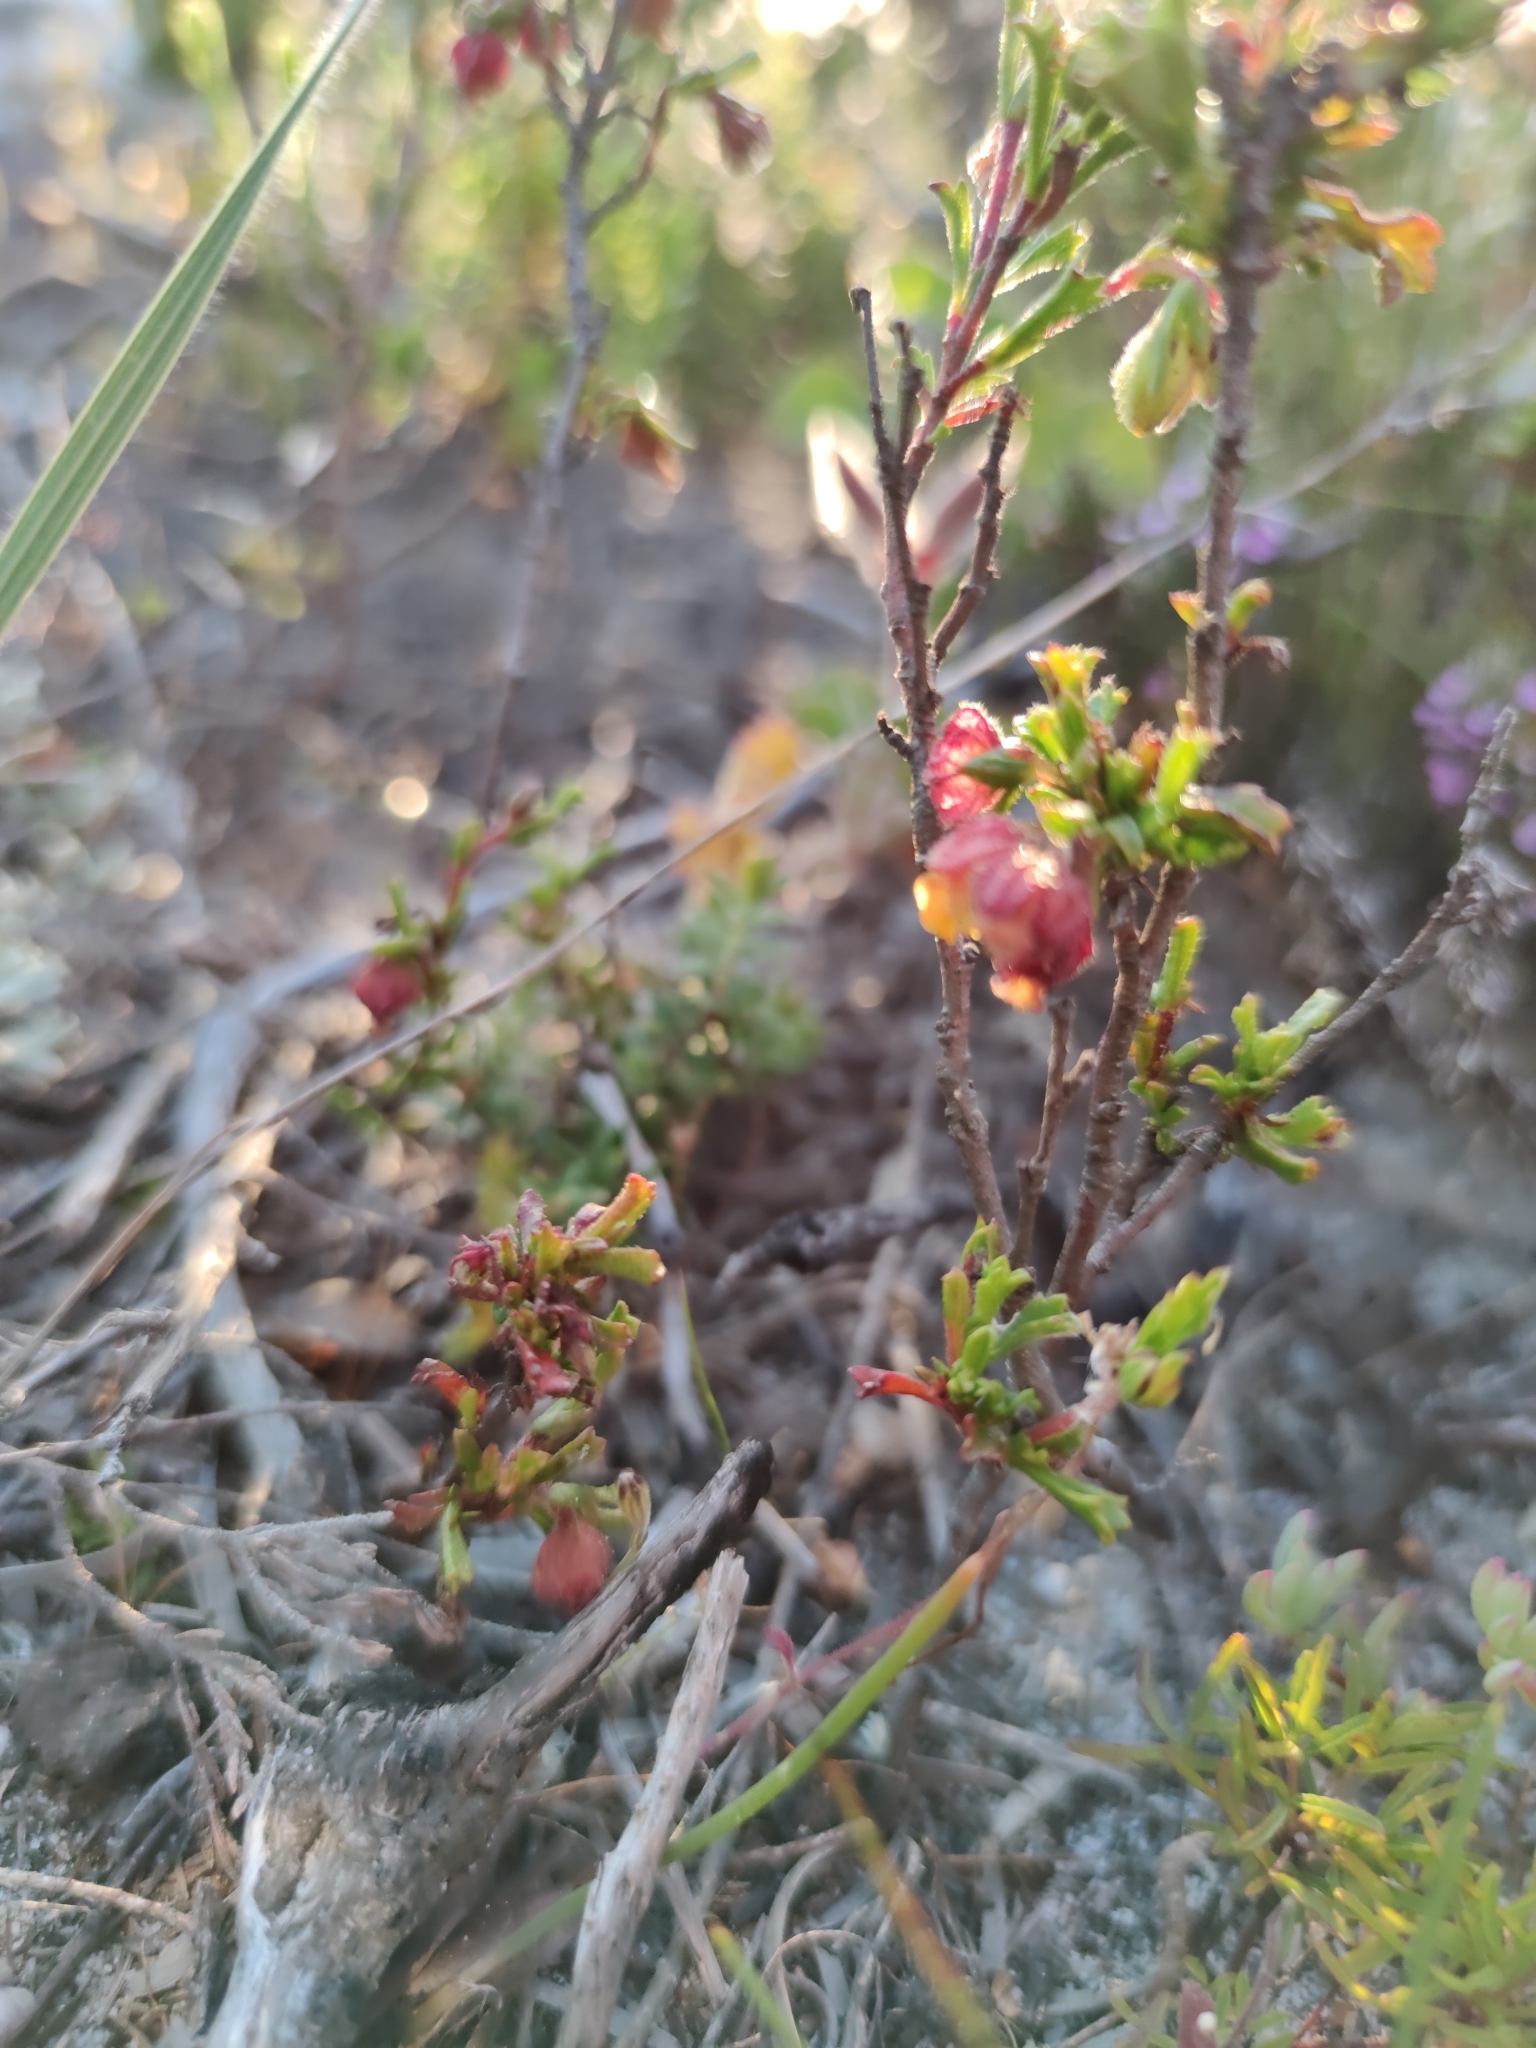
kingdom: Plantae
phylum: Tracheophyta
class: Magnoliopsida
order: Malvales
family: Malvaceae
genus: Hermannia
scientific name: Hermannia rudis
